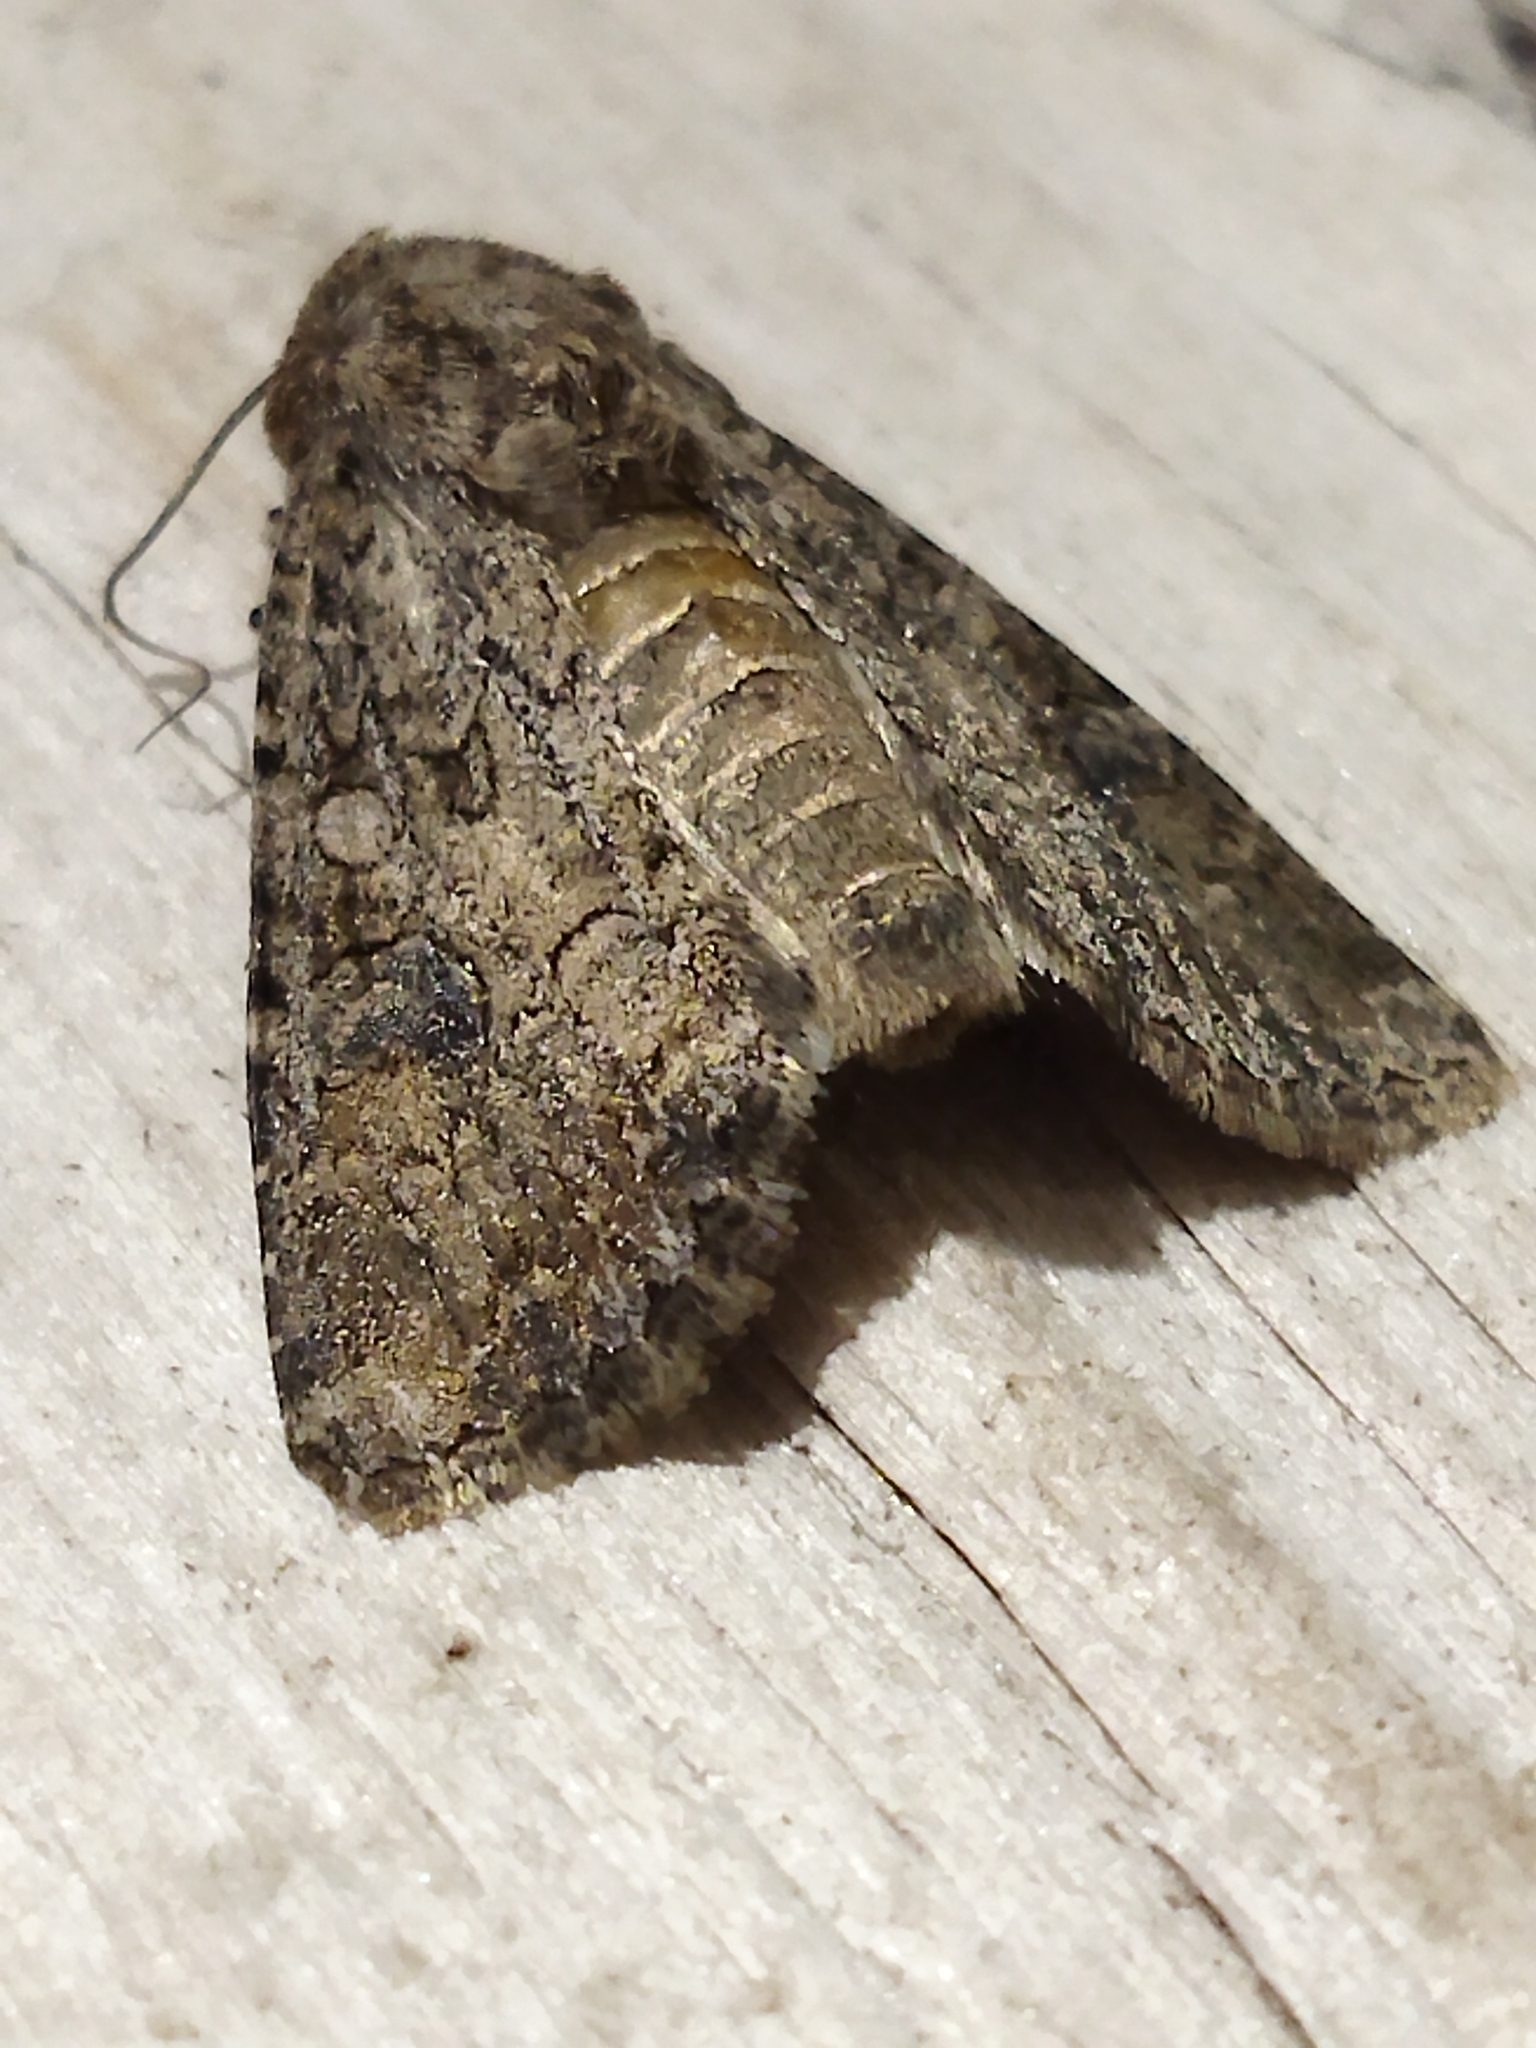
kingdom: Animalia
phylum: Arthropoda
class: Insecta
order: Lepidoptera
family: Noctuidae
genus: Anarta
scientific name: Anarta trifolii
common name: Clover cutworm moth
